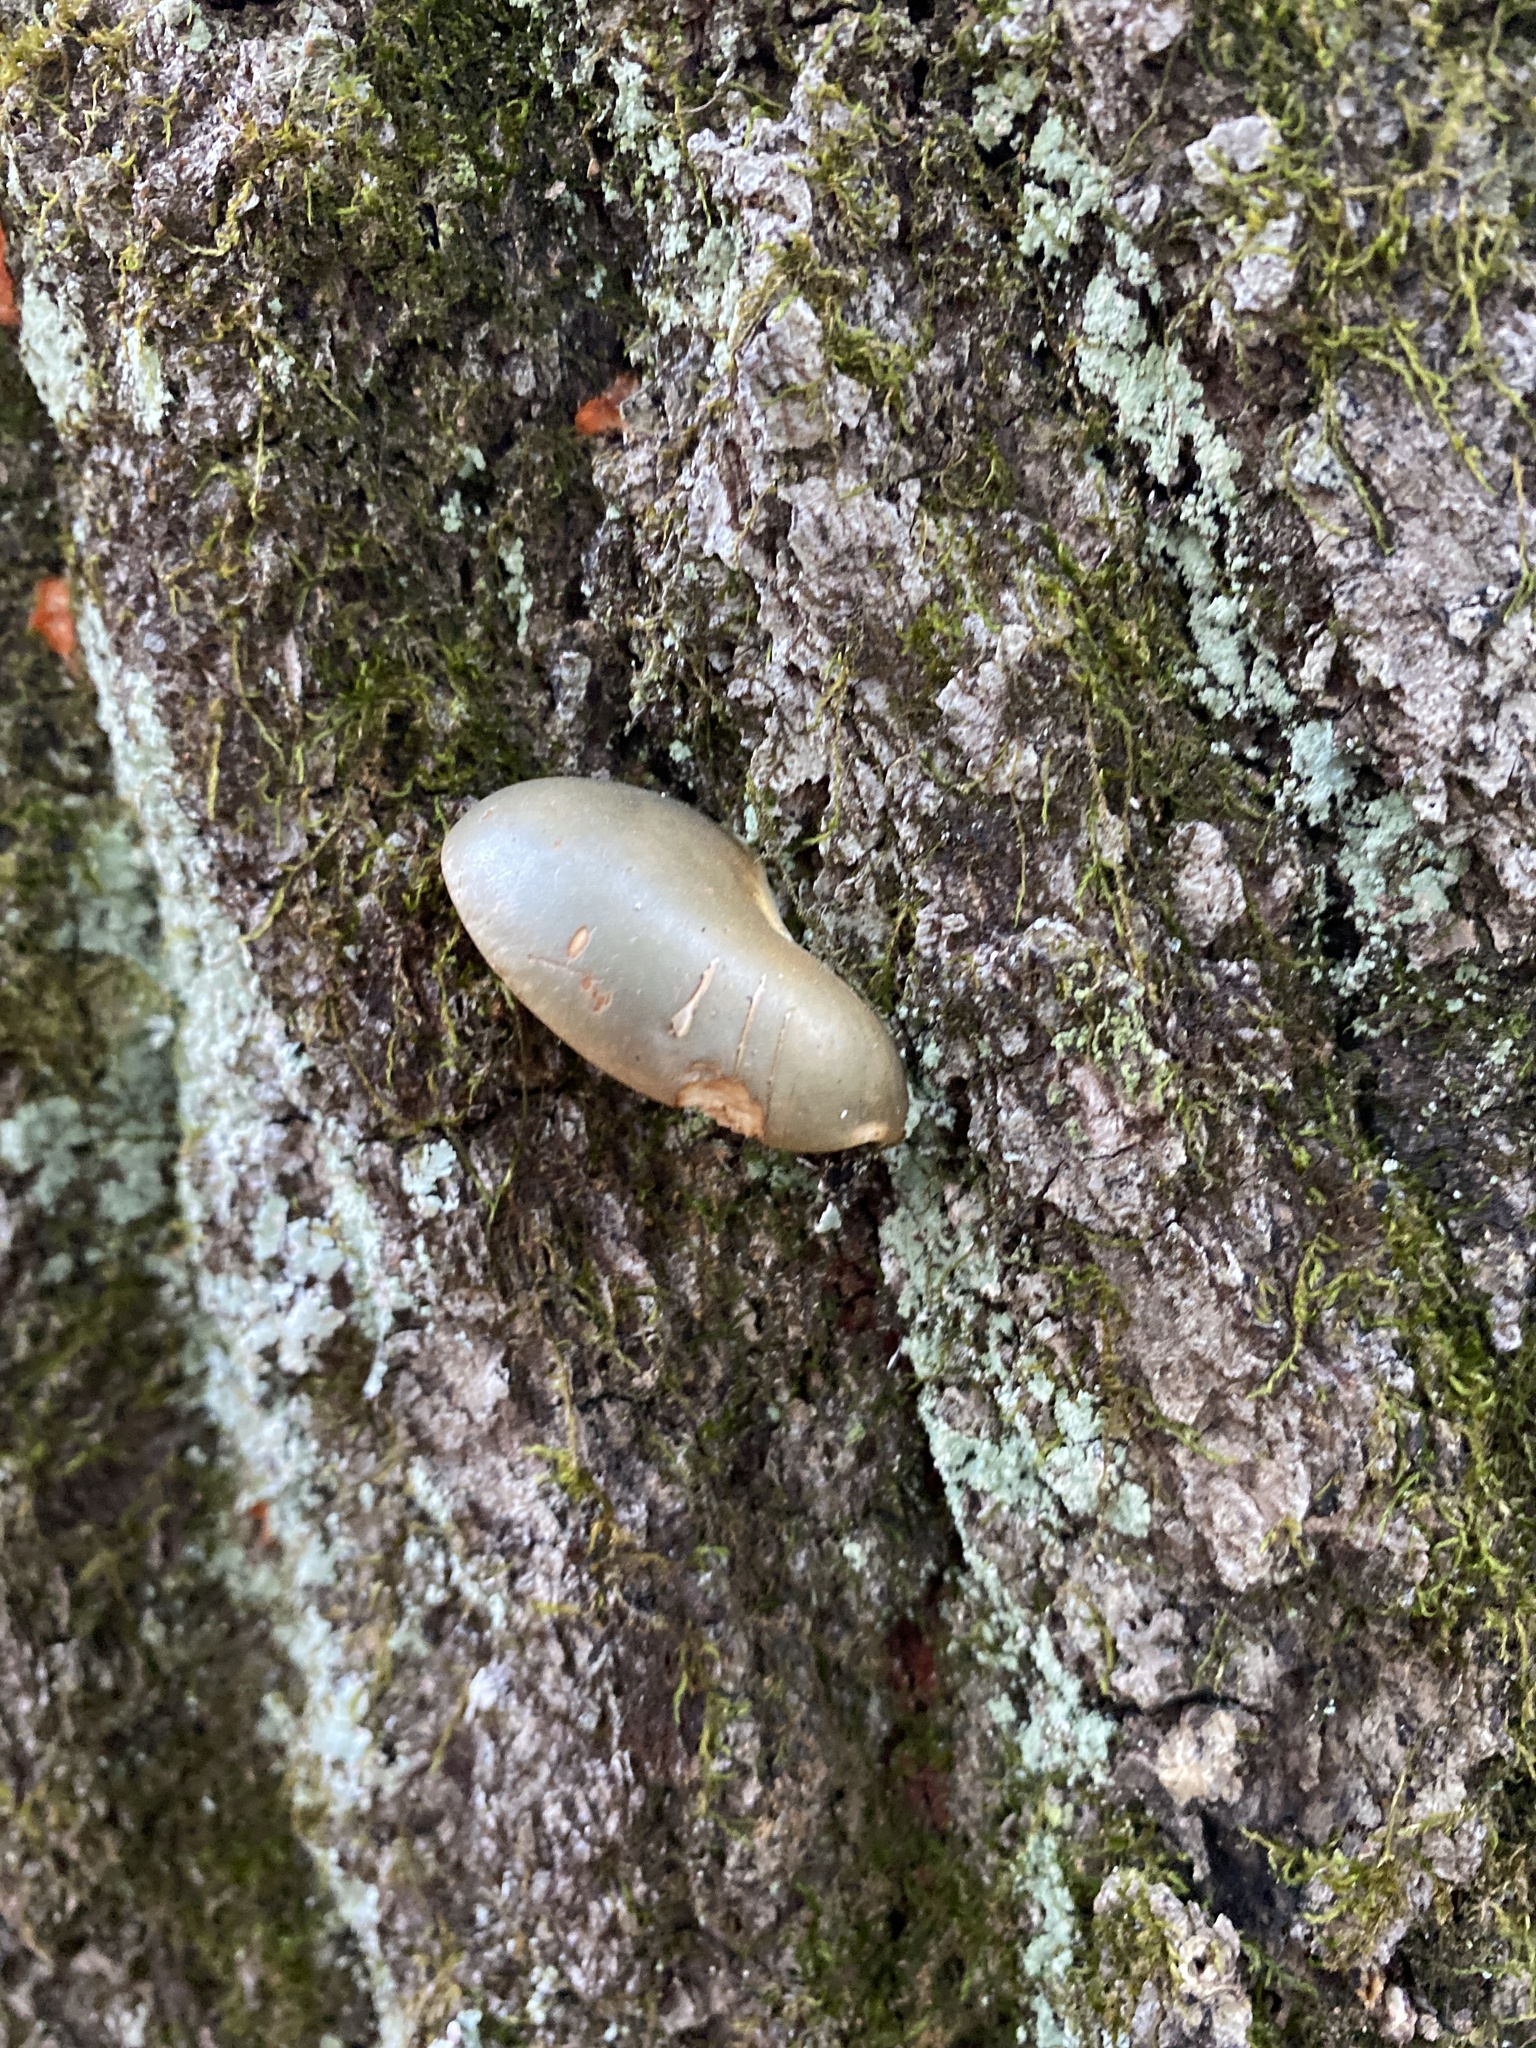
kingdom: Fungi
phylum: Basidiomycota
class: Agaricomycetes
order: Agaricales
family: Sarcomyxaceae
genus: Sarcomyxa
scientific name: Sarcomyxa serotina
